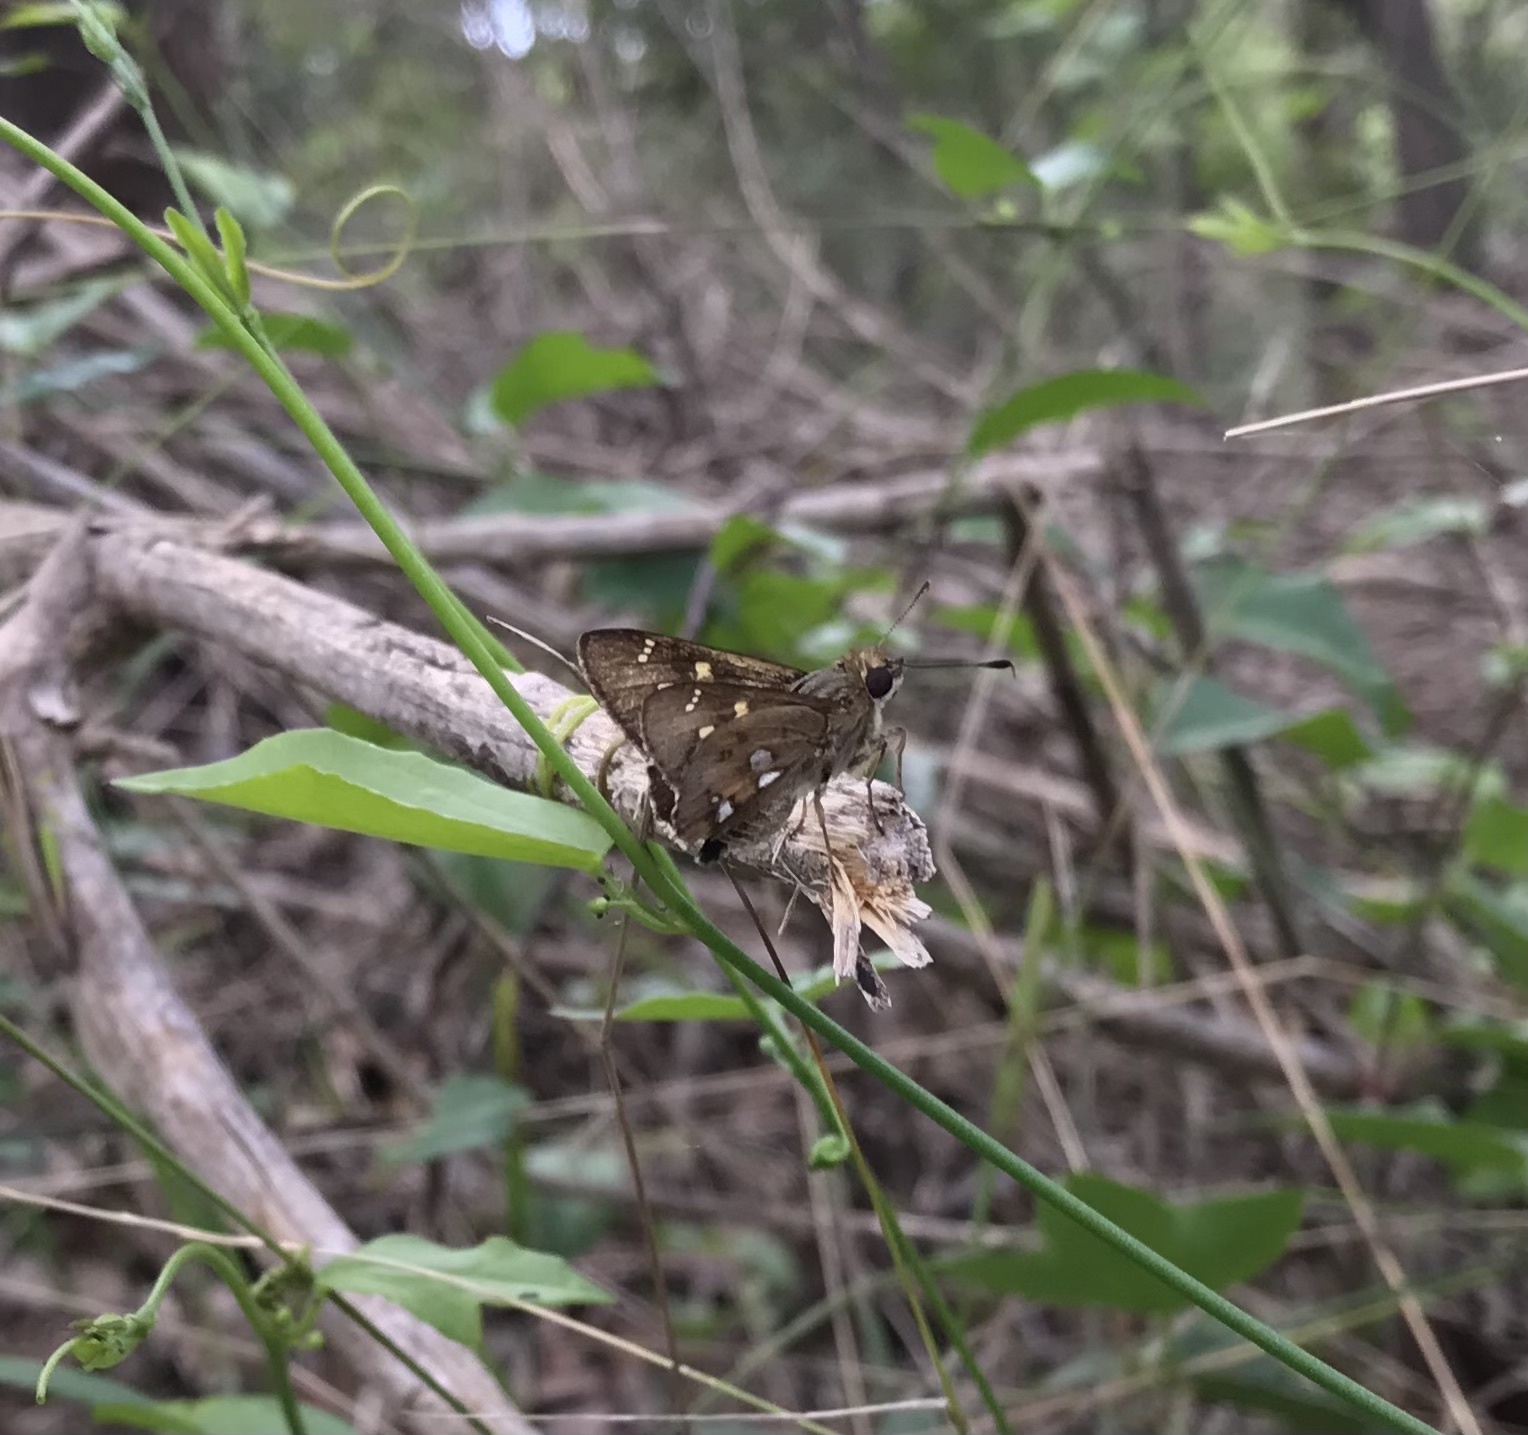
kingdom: Animalia
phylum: Arthropoda
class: Insecta
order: Lepidoptera
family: Hesperiidae
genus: Trapezites
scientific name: Trapezites maheta
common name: Northern silver ochre
